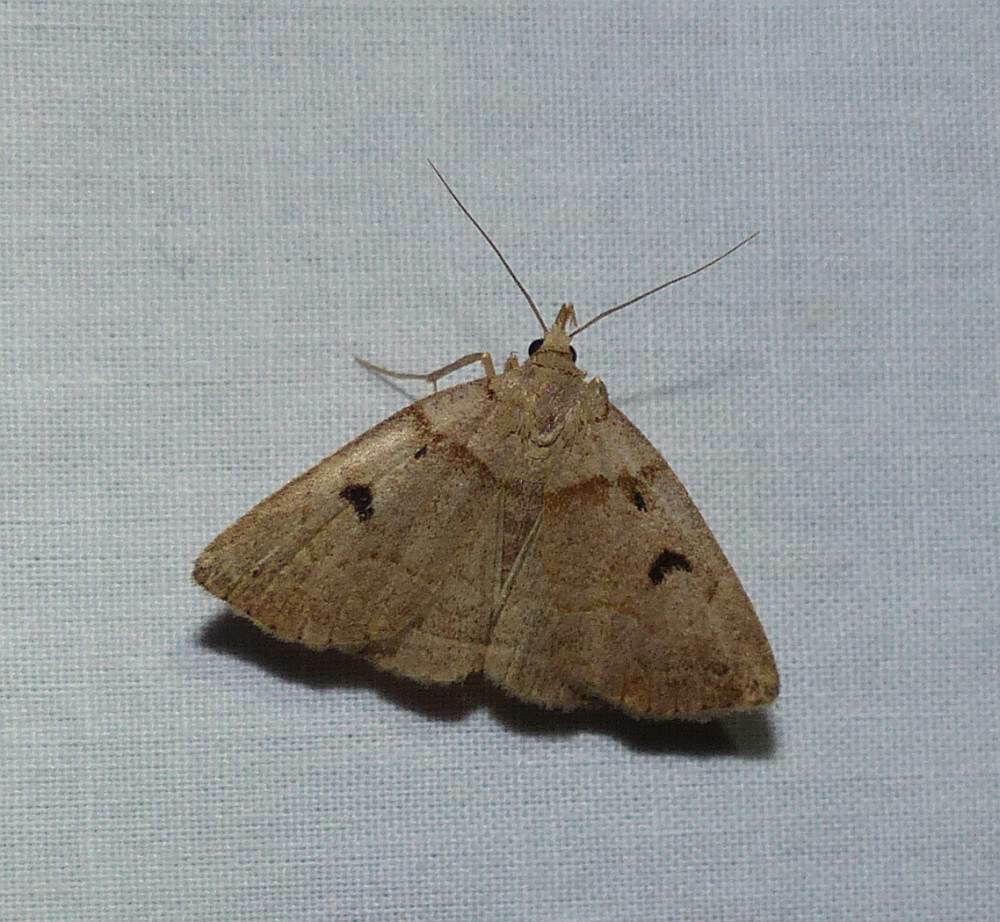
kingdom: Animalia
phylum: Arthropoda
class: Insecta
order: Lepidoptera
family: Erebidae
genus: Zanclognatha
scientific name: Zanclognatha laevigata
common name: Variable fan-foot
